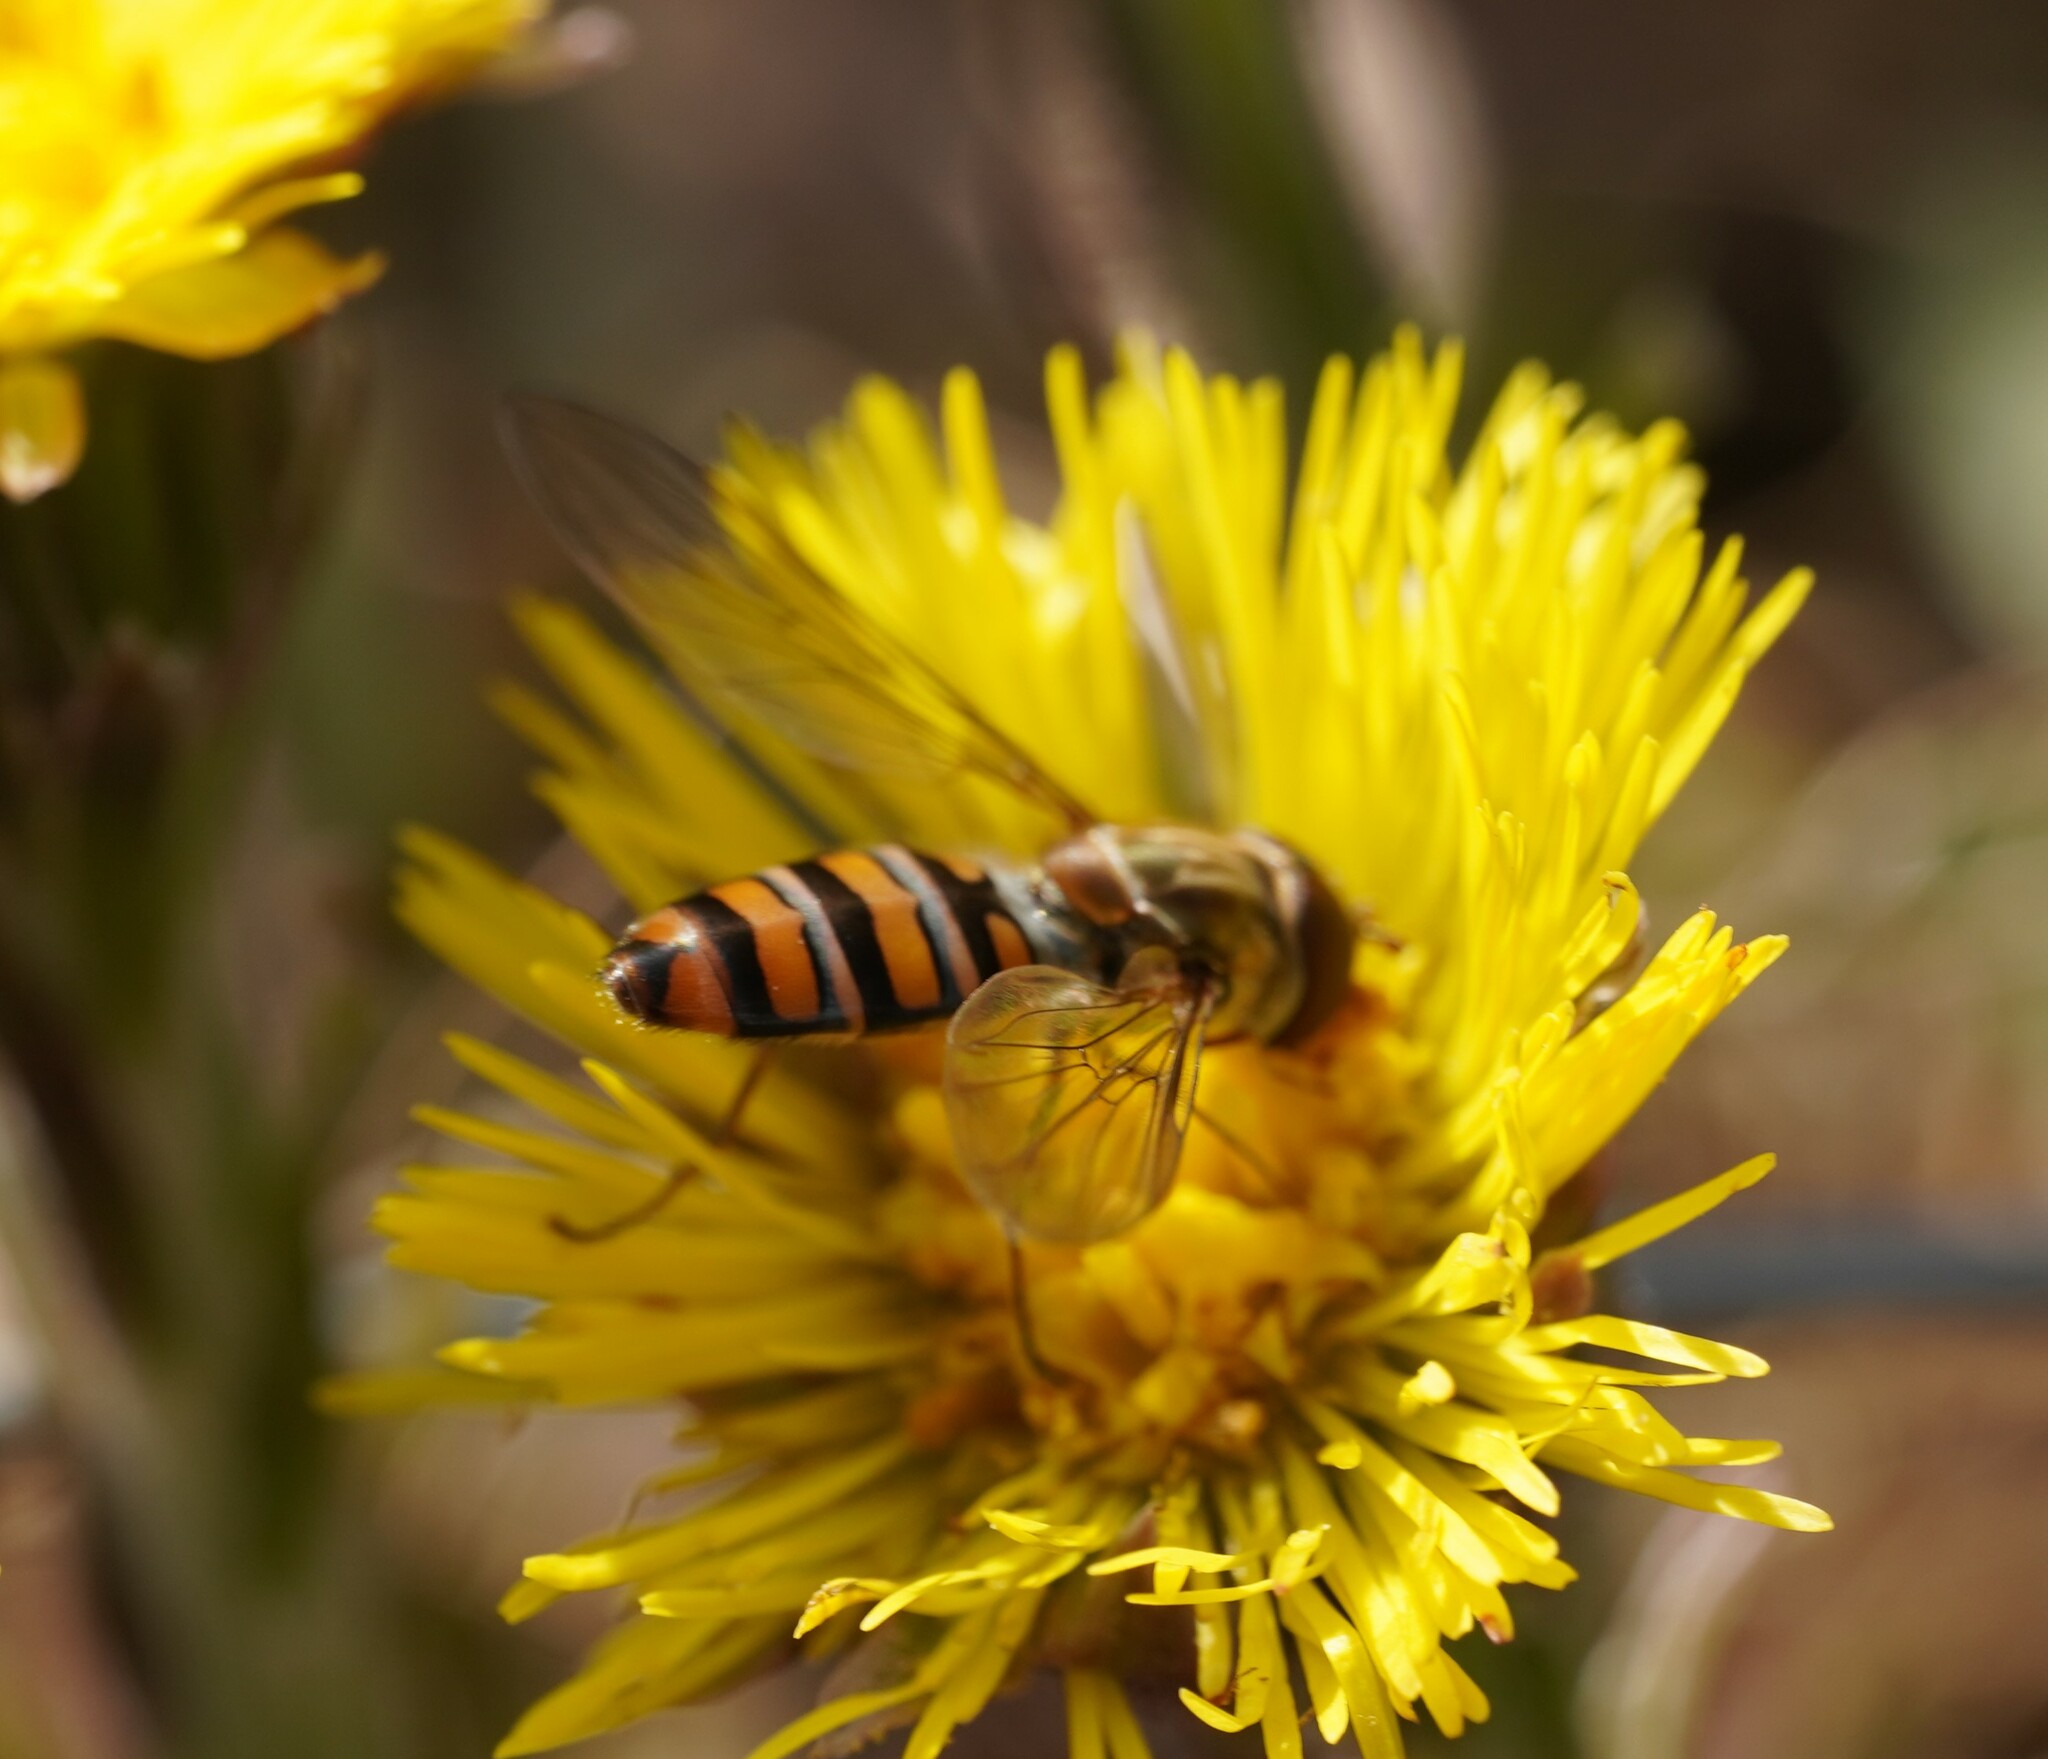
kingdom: Animalia
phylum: Arthropoda
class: Insecta
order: Diptera
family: Syrphidae
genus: Episyrphus
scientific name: Episyrphus balteatus
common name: Marmalade hoverfly
